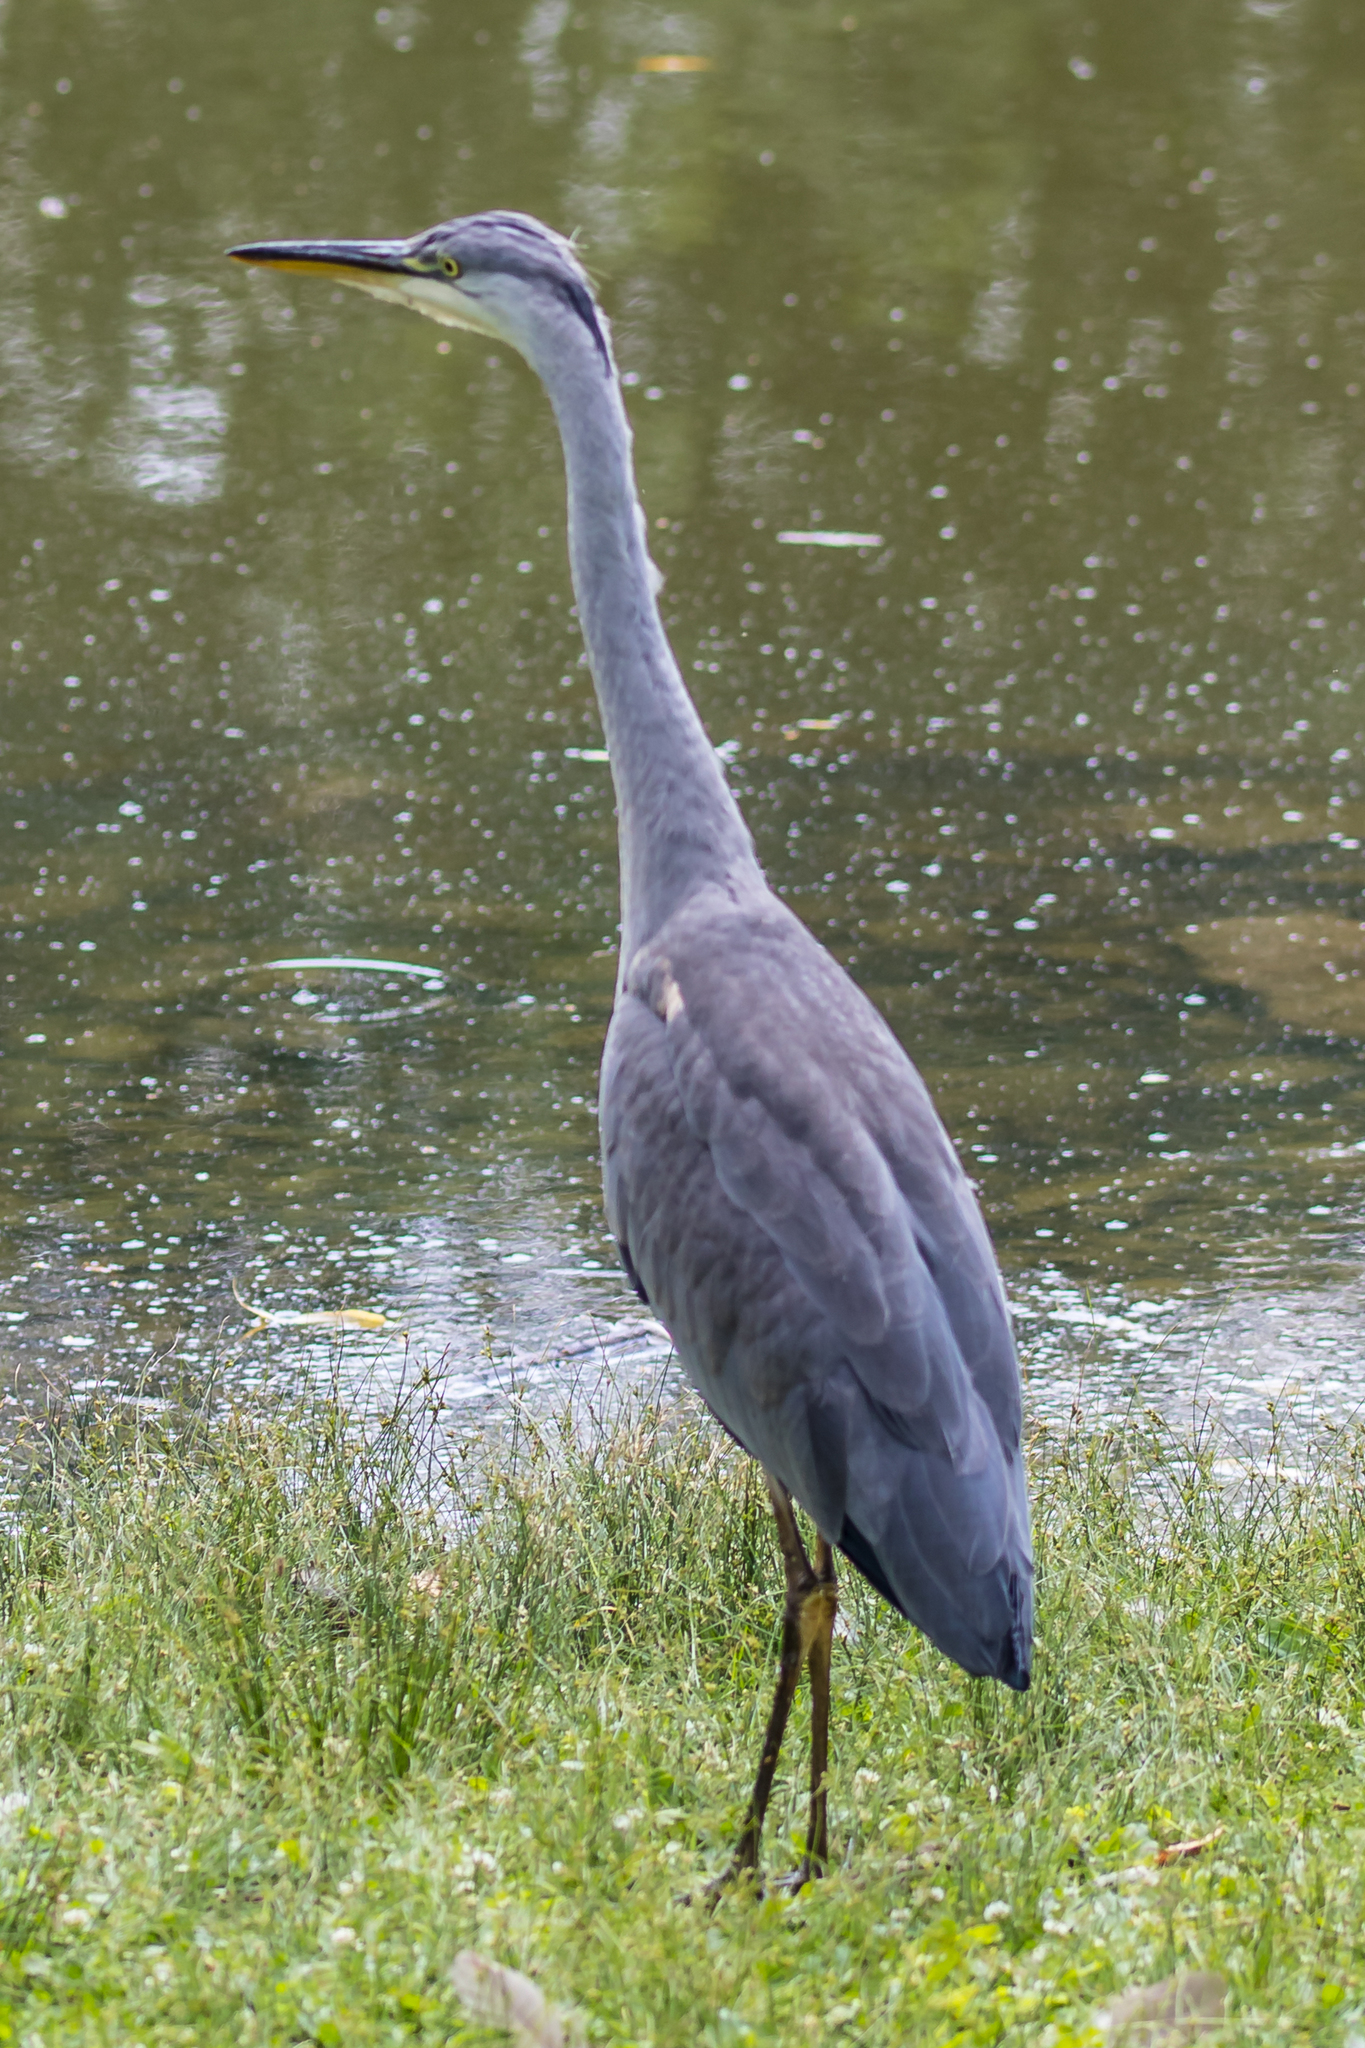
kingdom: Animalia
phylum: Chordata
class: Aves
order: Pelecaniformes
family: Ardeidae
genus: Ardea
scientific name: Ardea cinerea
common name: Grey heron
